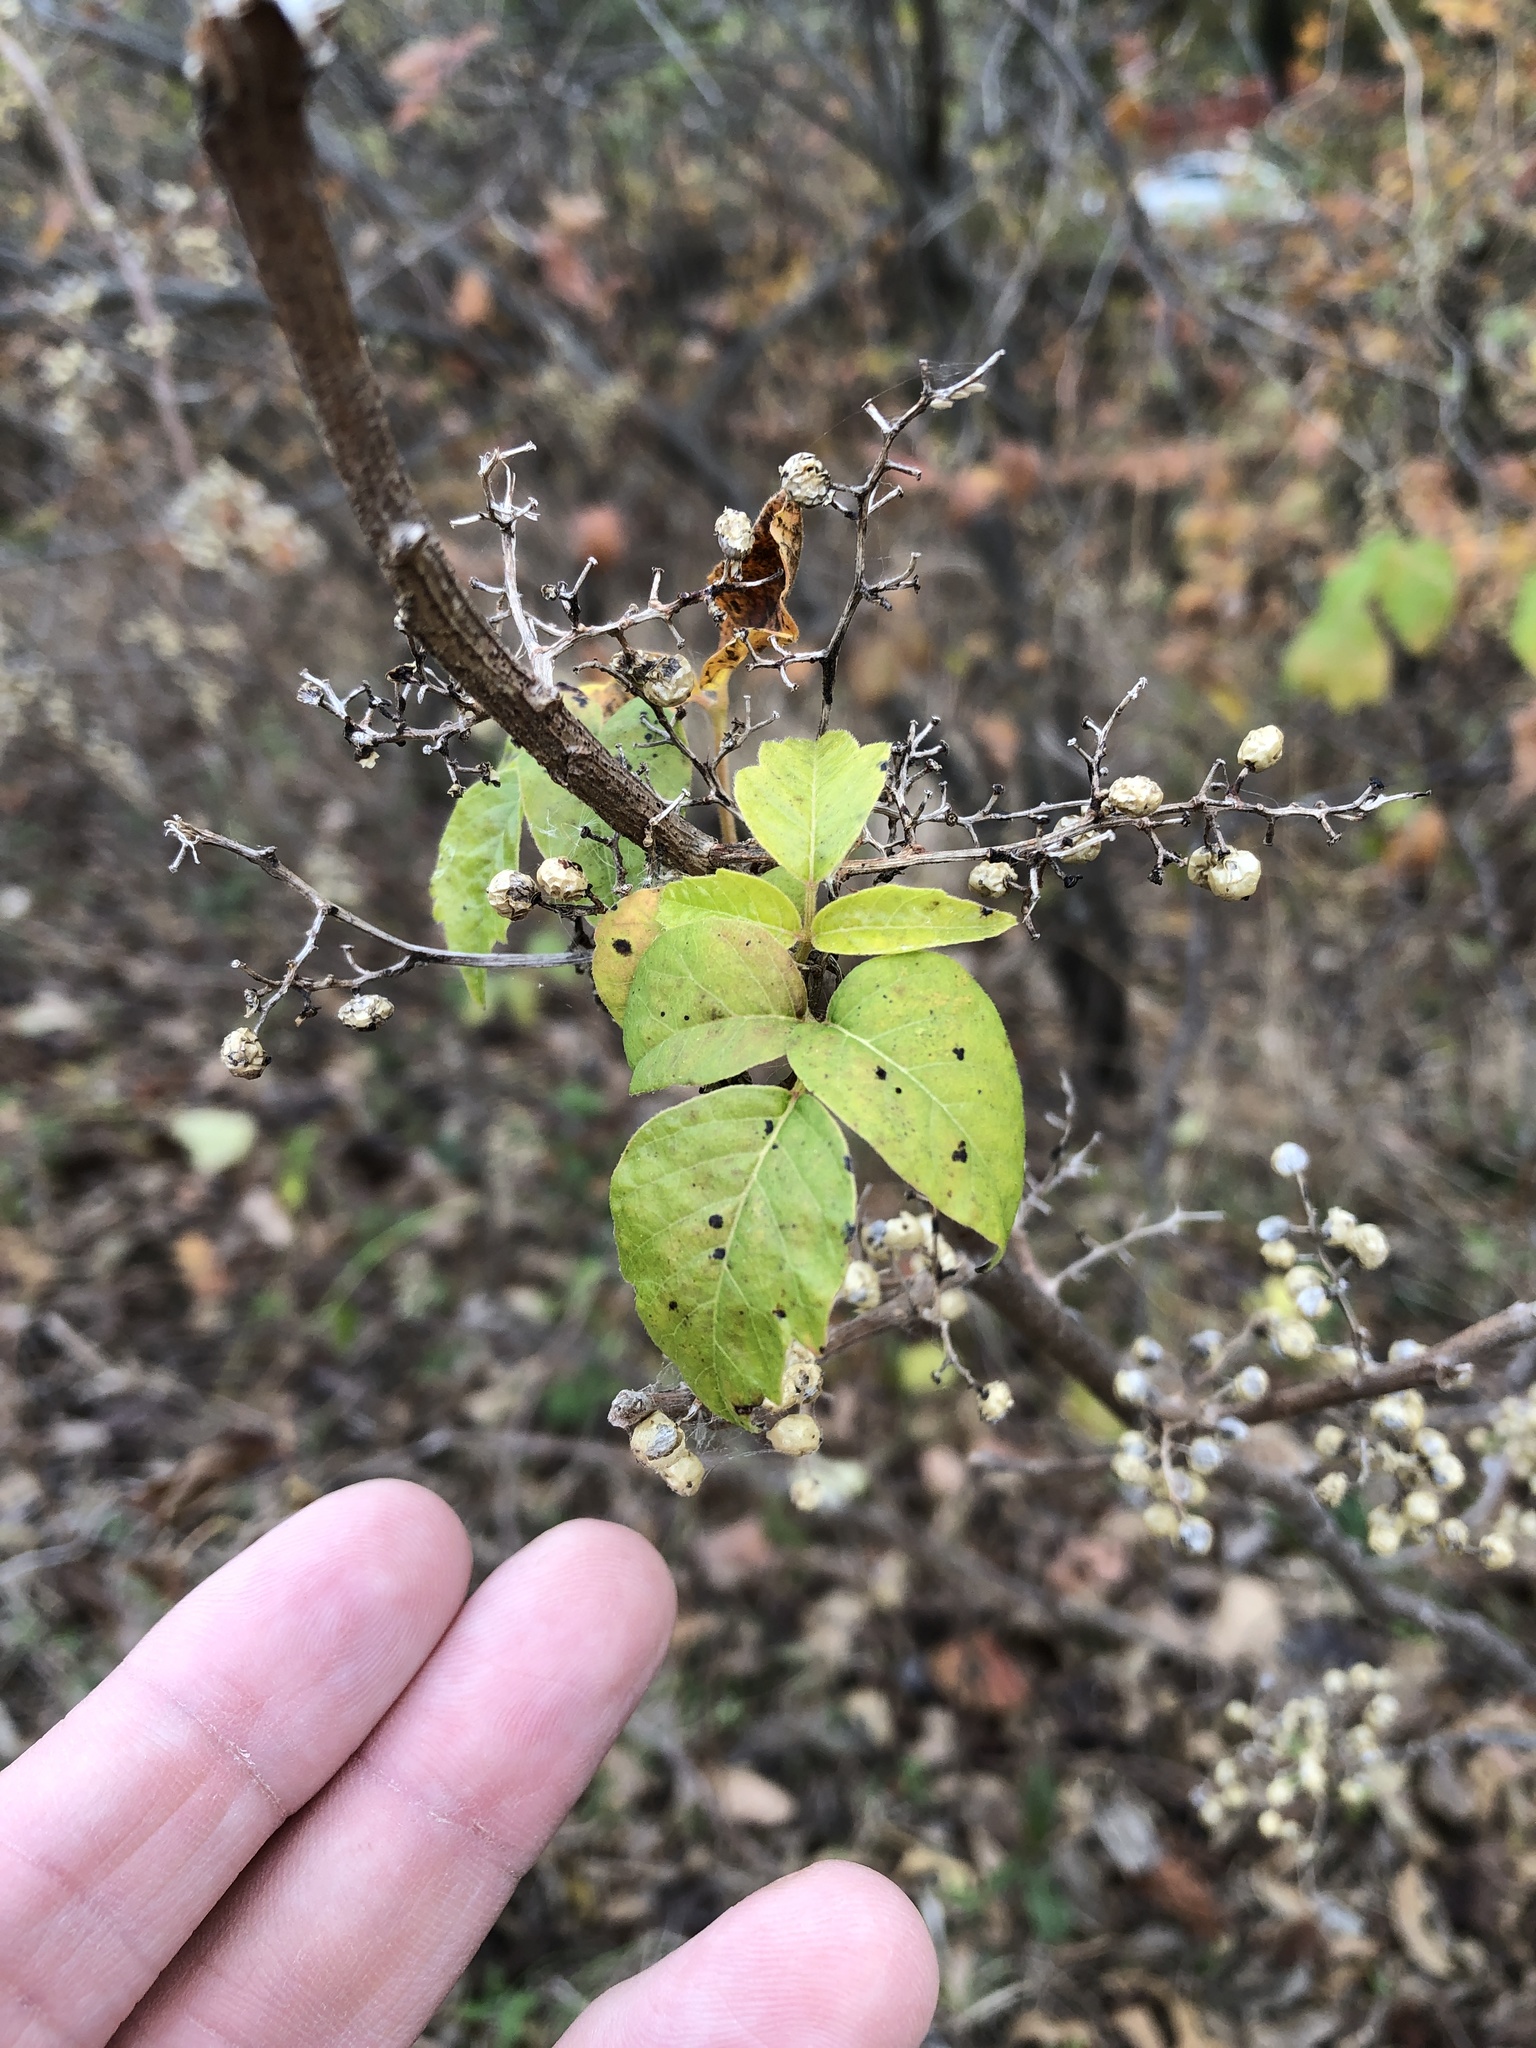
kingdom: Plantae
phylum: Tracheophyta
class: Magnoliopsida
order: Sapindales
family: Anacardiaceae
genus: Toxicodendron
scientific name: Toxicodendron radicans
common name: Poison ivy
